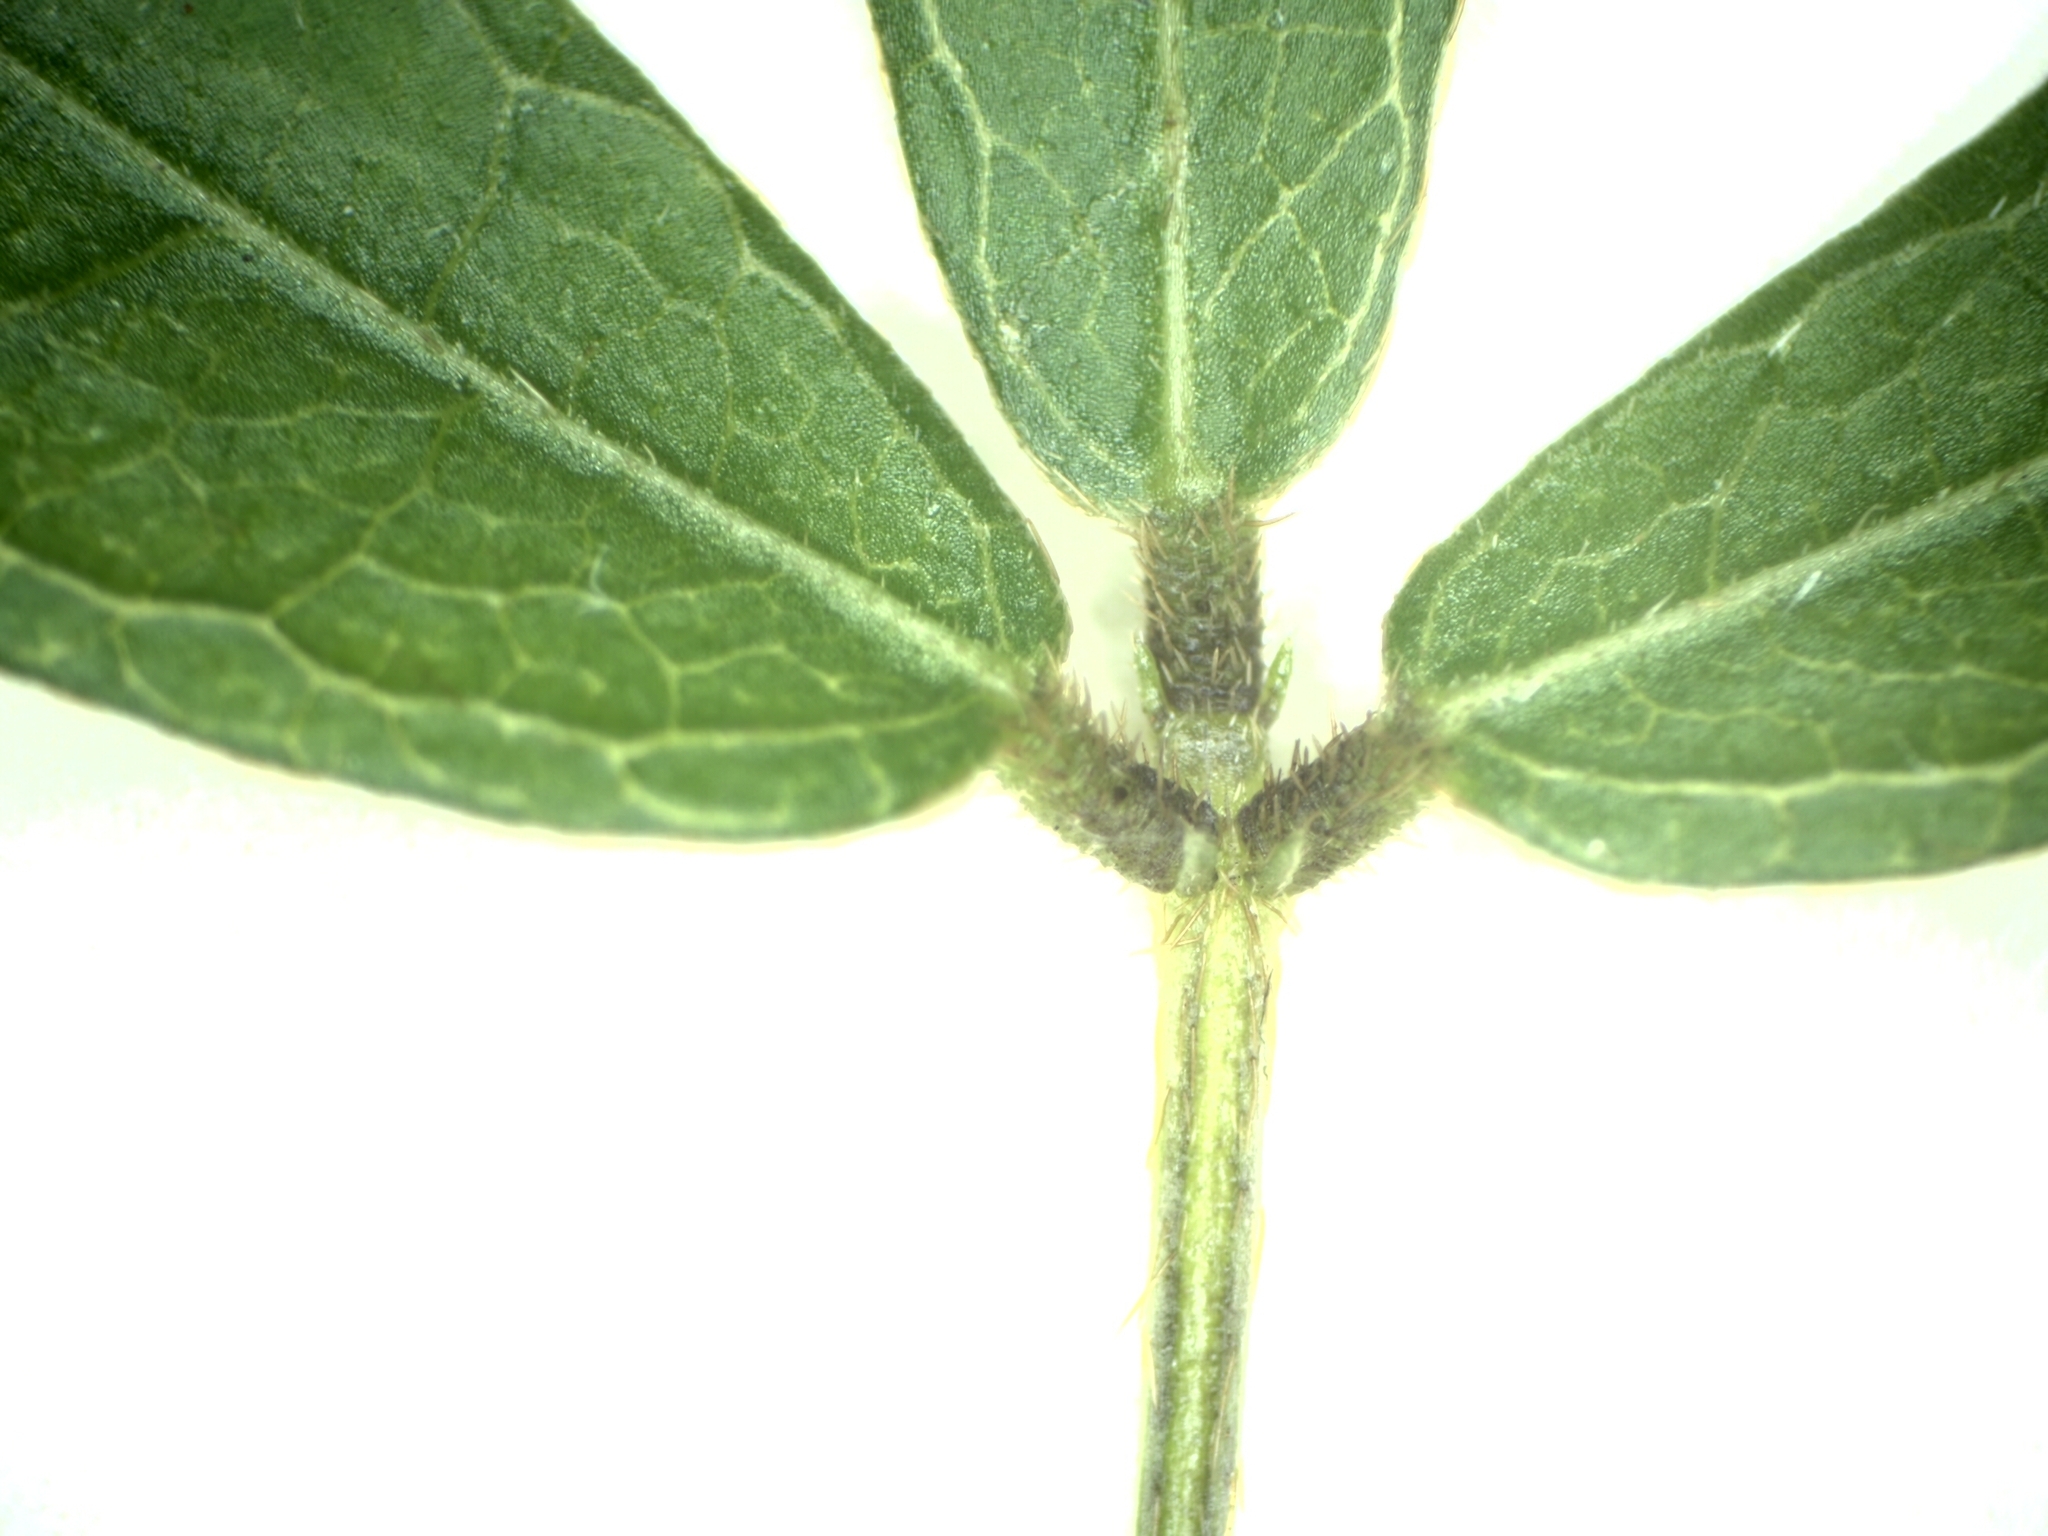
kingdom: Plantae
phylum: Tracheophyta
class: Magnoliopsida
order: Fabales
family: Fabaceae
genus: Glycine
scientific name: Glycine microphylla
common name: Small-leaf glycine
